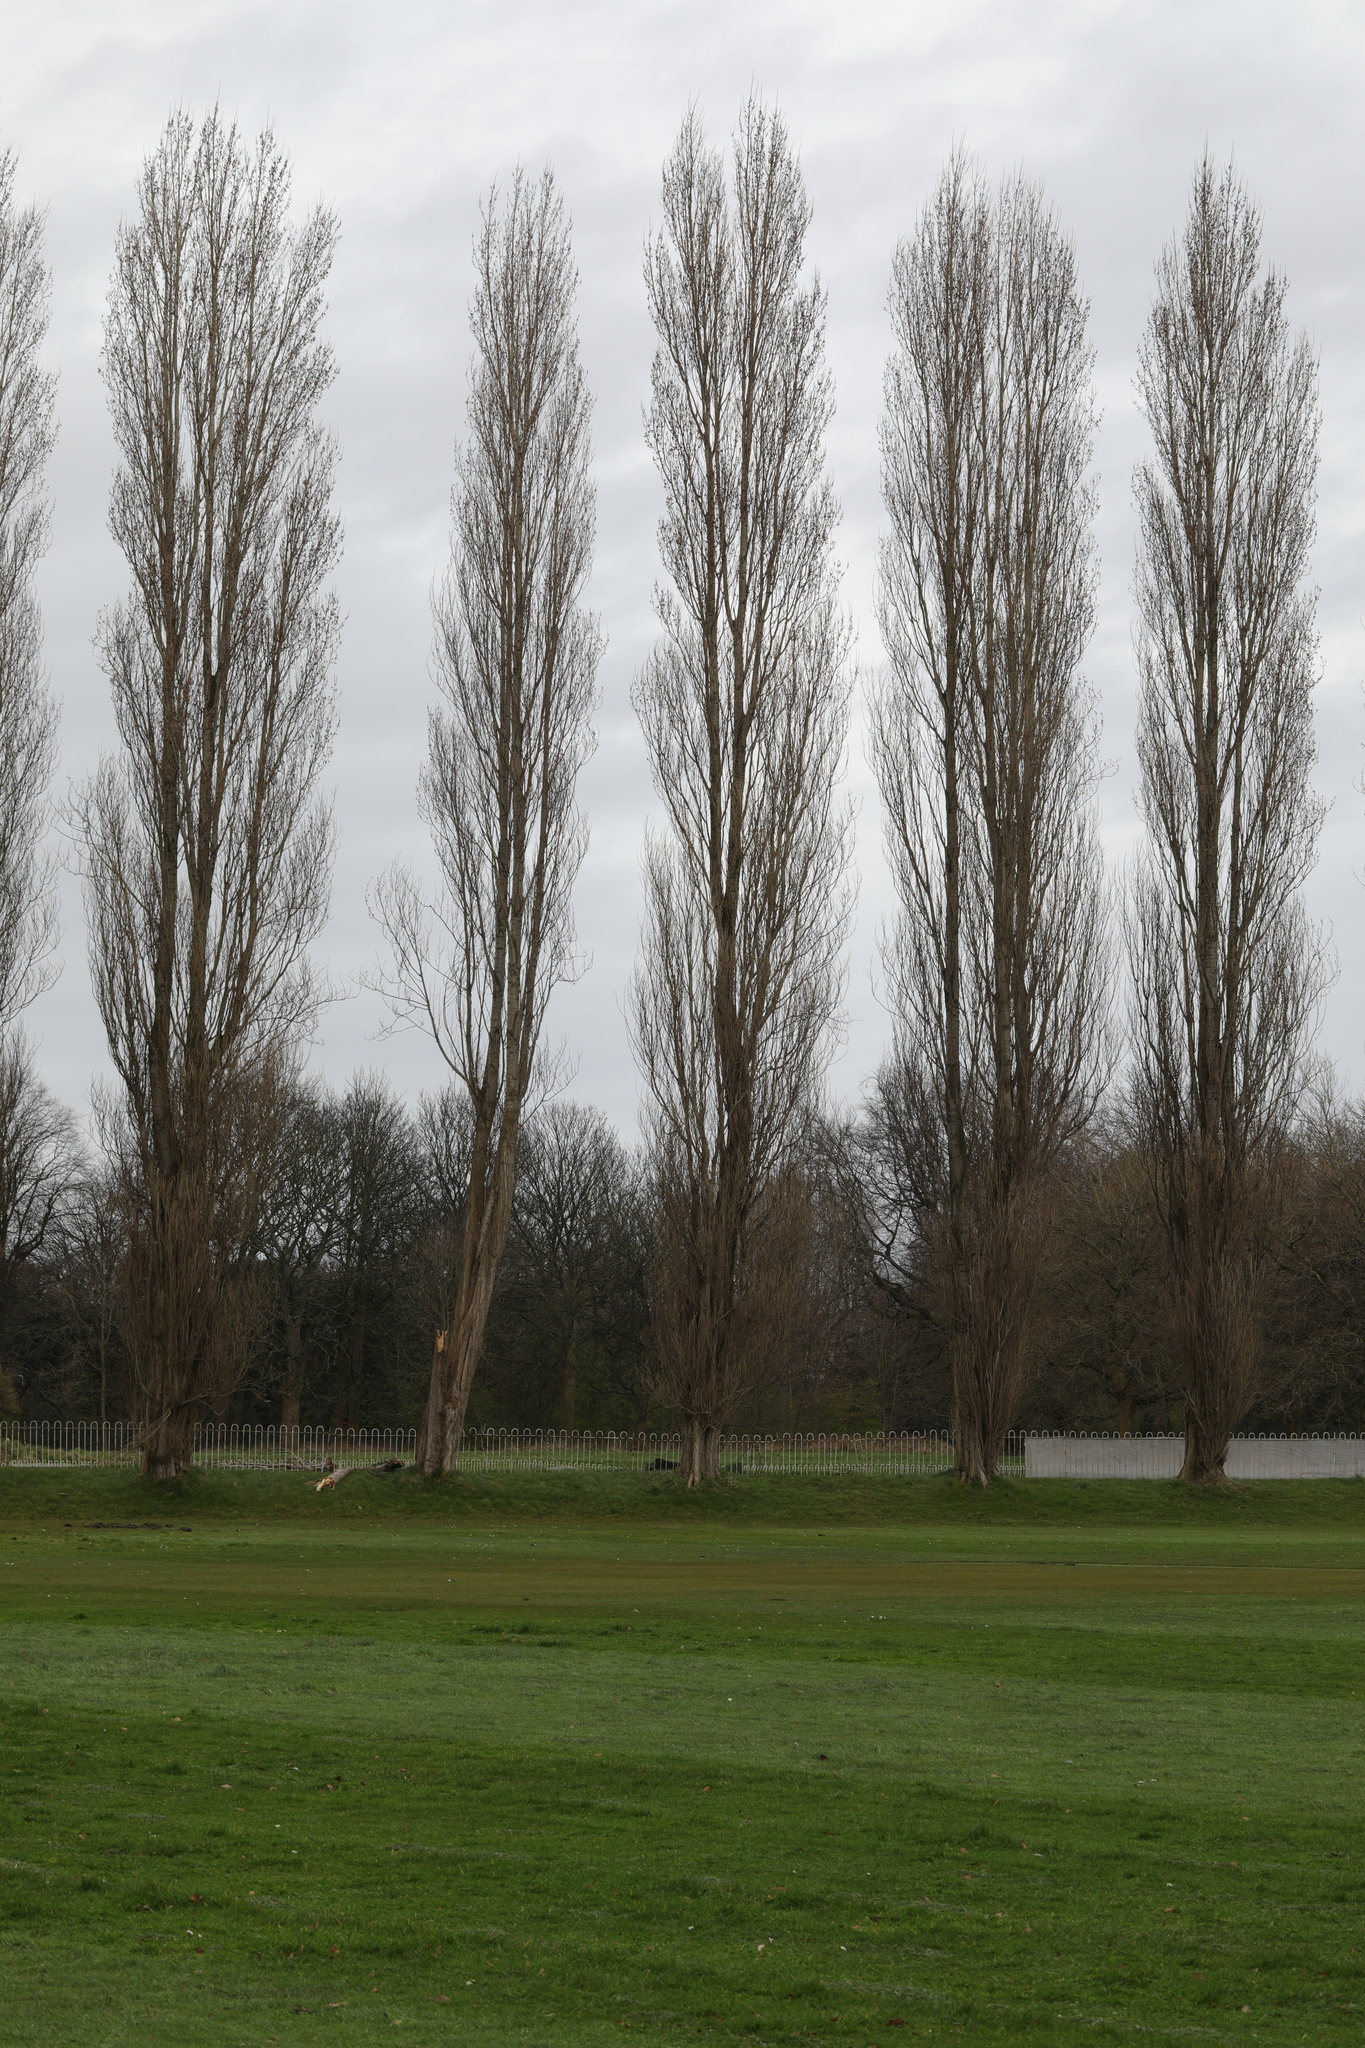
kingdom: Plantae
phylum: Tracheophyta
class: Magnoliopsida
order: Malpighiales
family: Salicaceae
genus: Populus
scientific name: Populus nigra
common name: Black poplar
